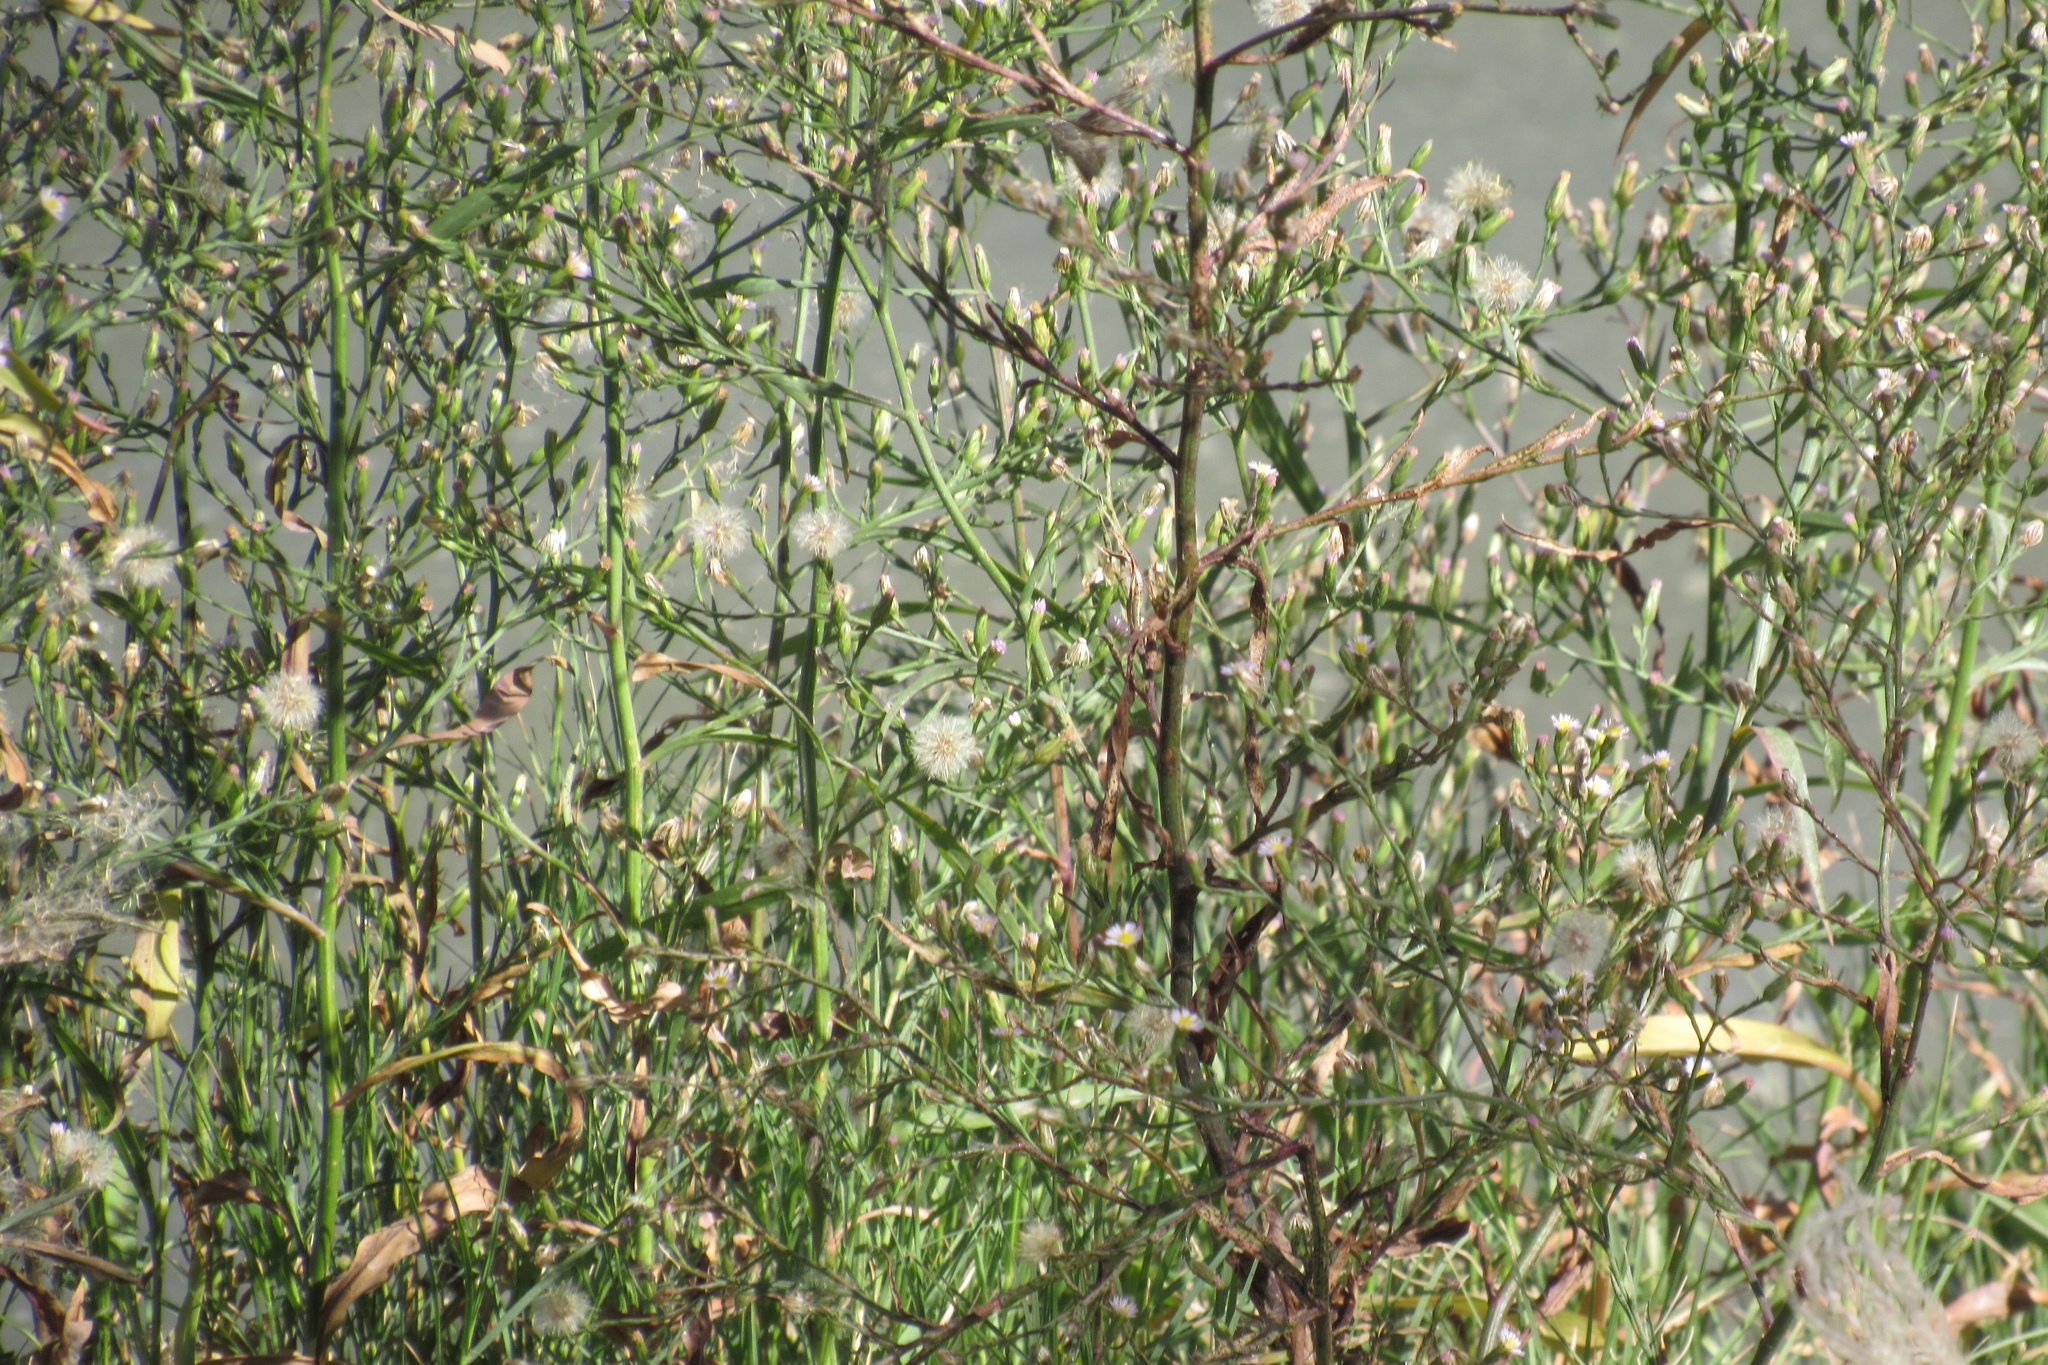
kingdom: Plantae
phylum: Tracheophyta
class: Magnoliopsida
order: Asterales
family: Asteraceae
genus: Symphyotrichum
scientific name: Symphyotrichum subulatum
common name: Annual saltmarsh aster
